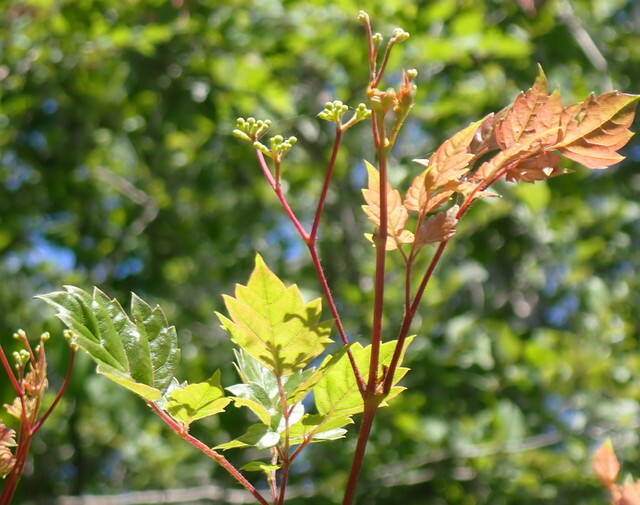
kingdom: Plantae
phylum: Tracheophyta
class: Magnoliopsida
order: Vitales
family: Vitaceae
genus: Nekemias
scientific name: Nekemias arborea
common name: Peppervine
